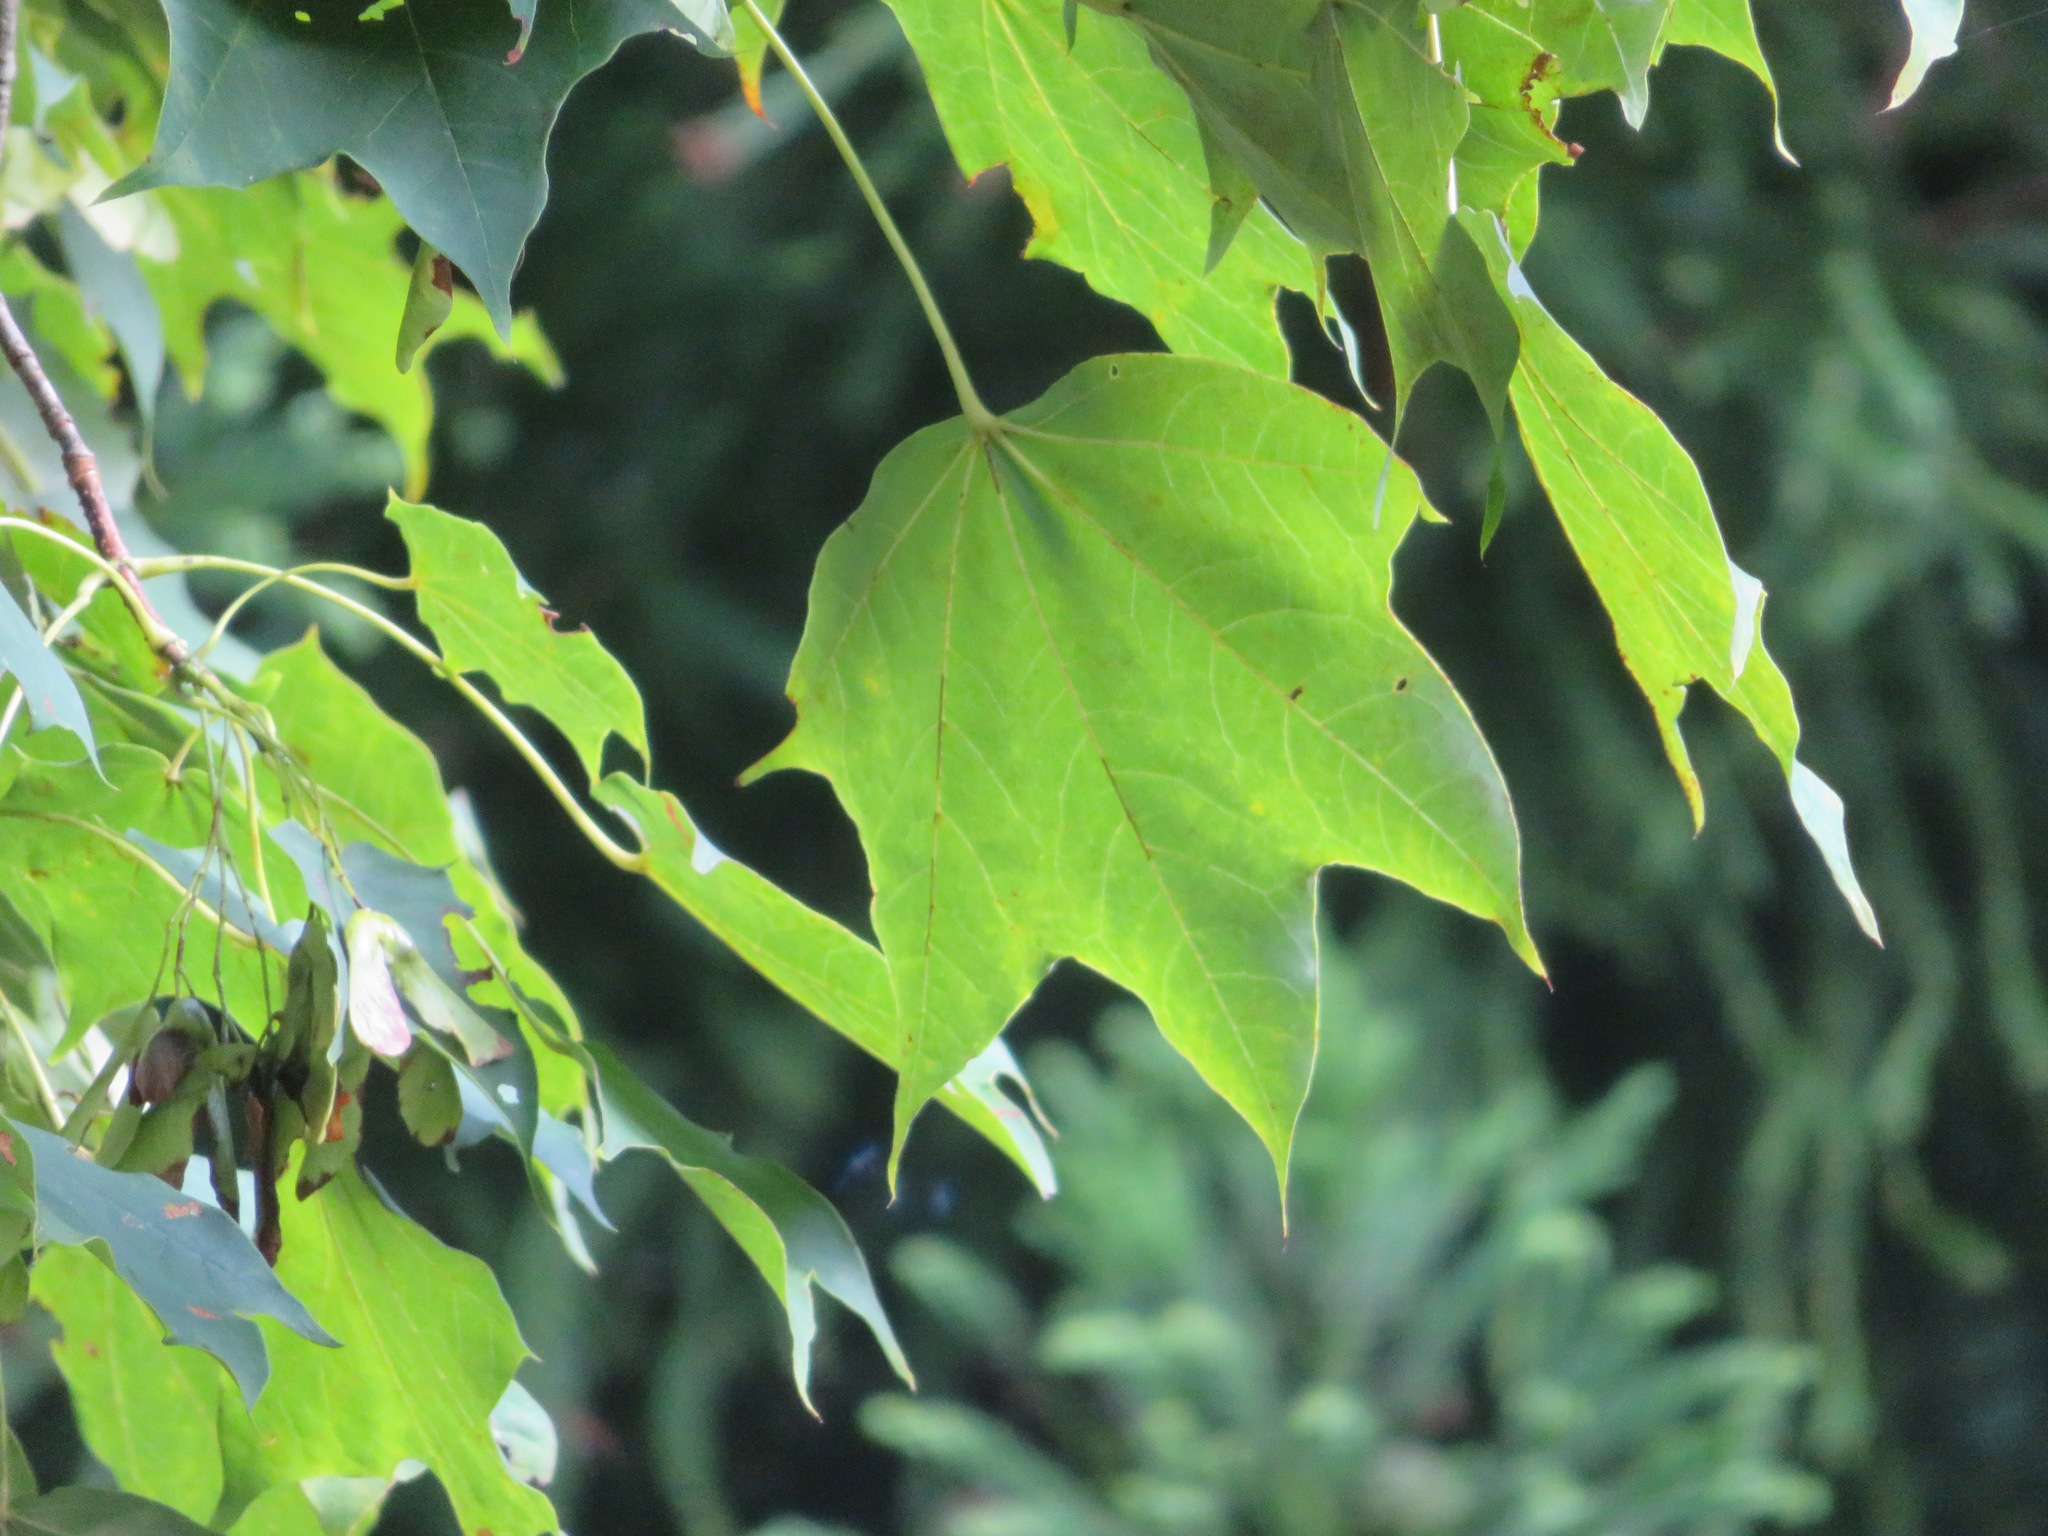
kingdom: Plantae
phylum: Tracheophyta
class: Magnoliopsida
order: Sapindales
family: Sapindaceae
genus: Acer
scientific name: Acer pictum
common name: The painted maple
